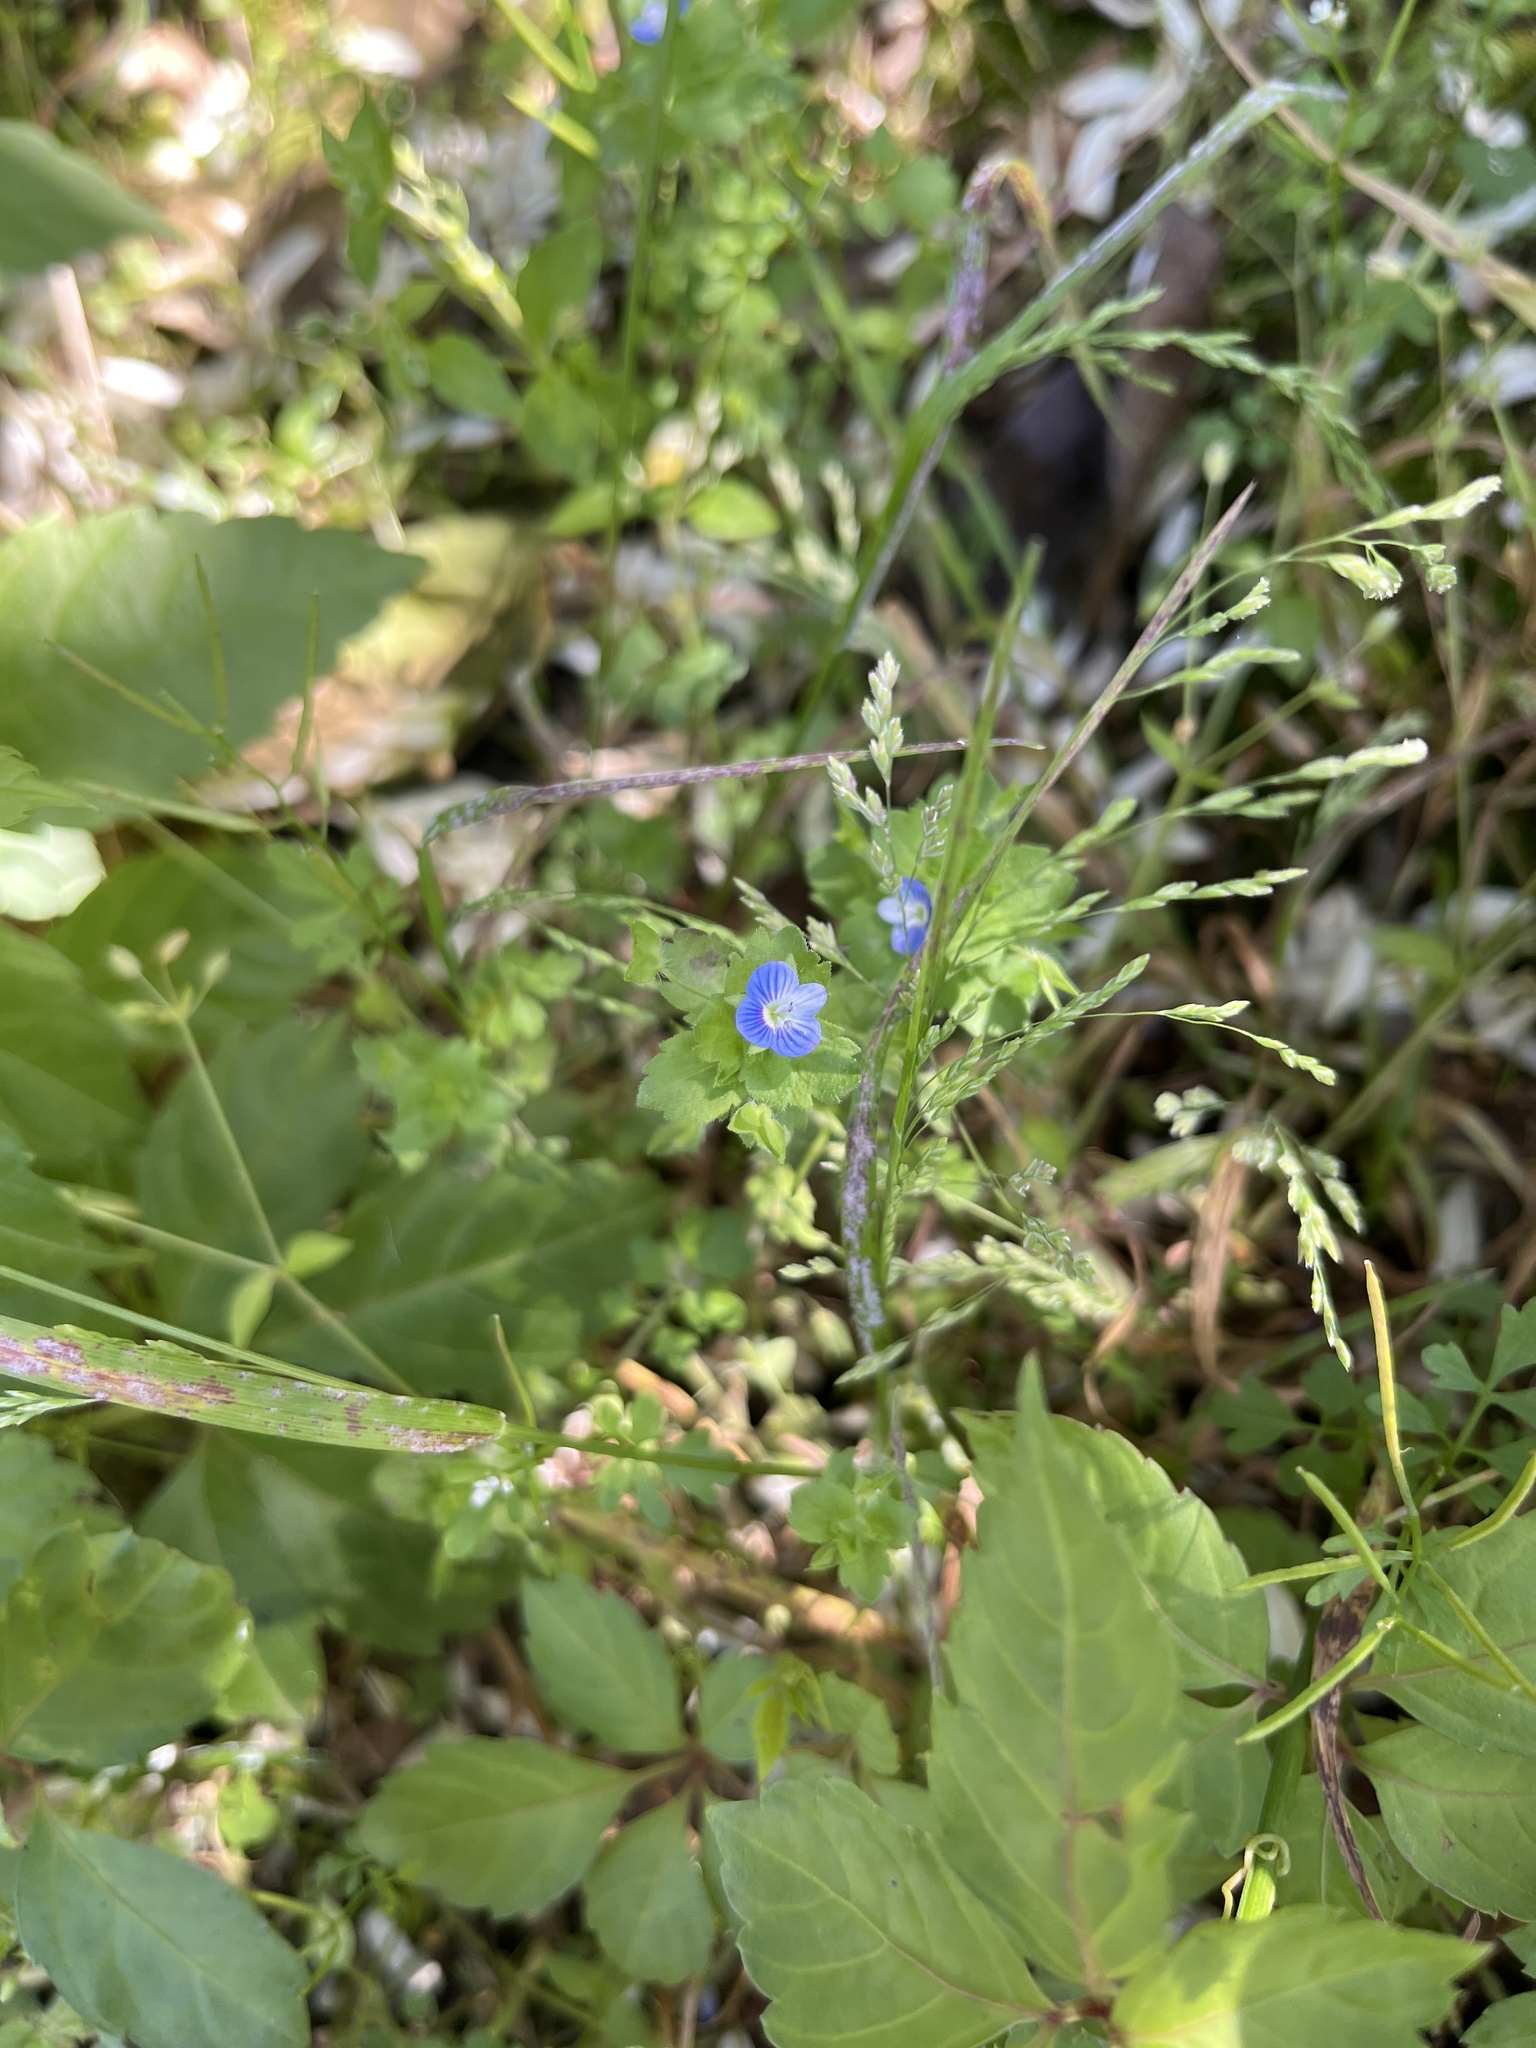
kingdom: Plantae
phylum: Tracheophyta
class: Magnoliopsida
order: Lamiales
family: Plantaginaceae
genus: Veronica
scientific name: Veronica persica
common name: Common field-speedwell
